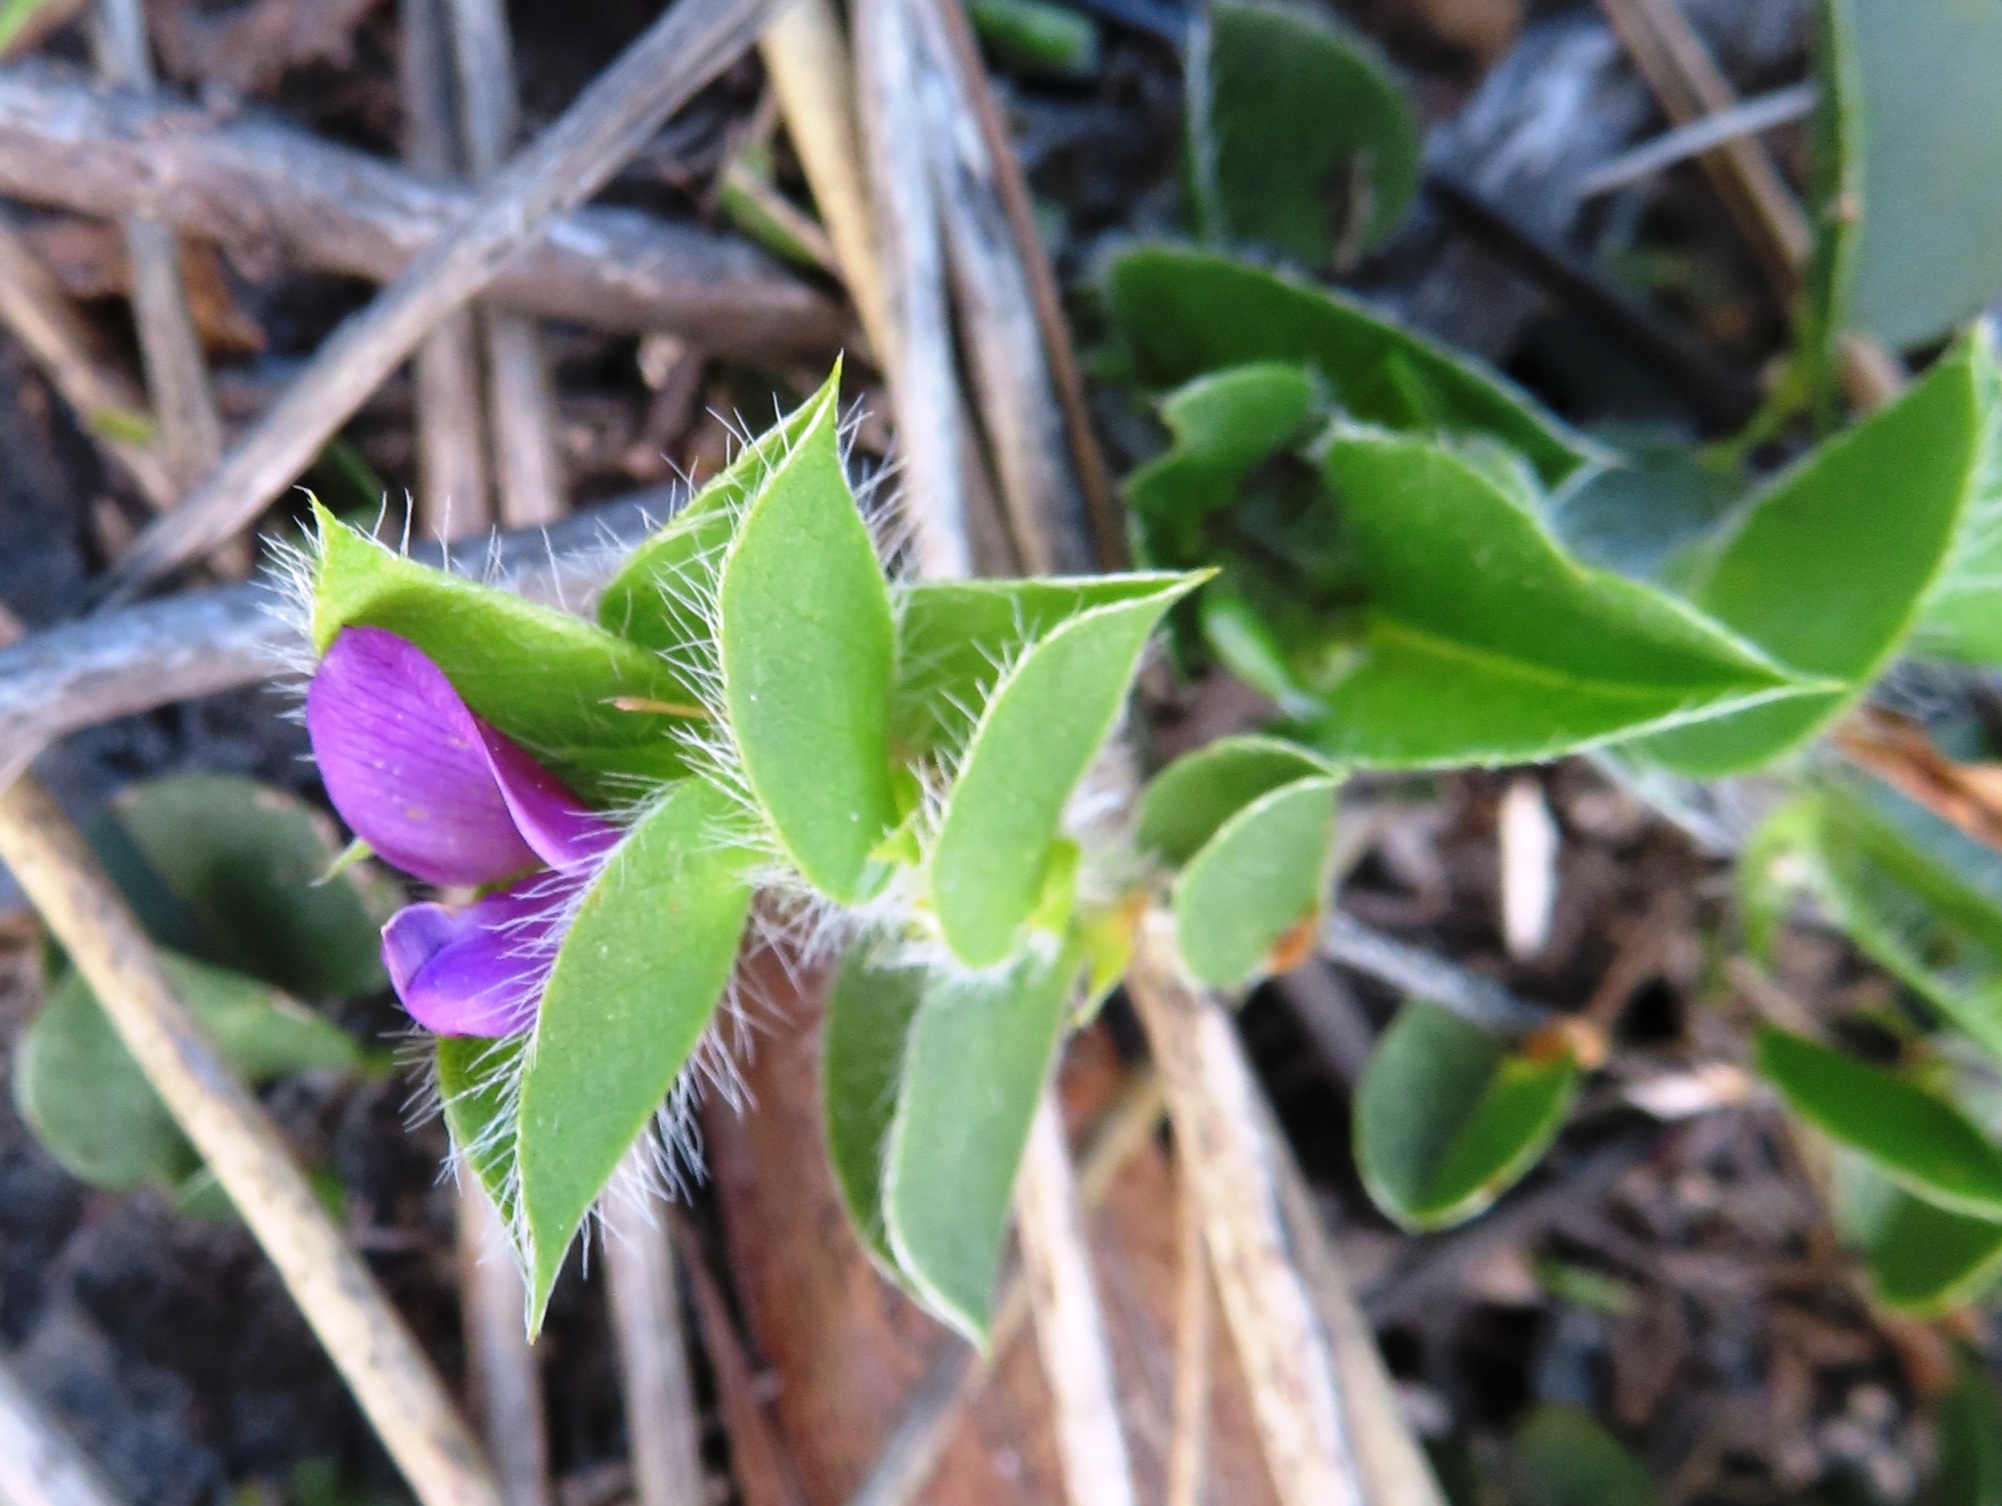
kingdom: Plantae
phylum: Tracheophyta
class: Magnoliopsida
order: Fabales
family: Fabaceae
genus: Psoralea
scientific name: Psoralea imbricata
